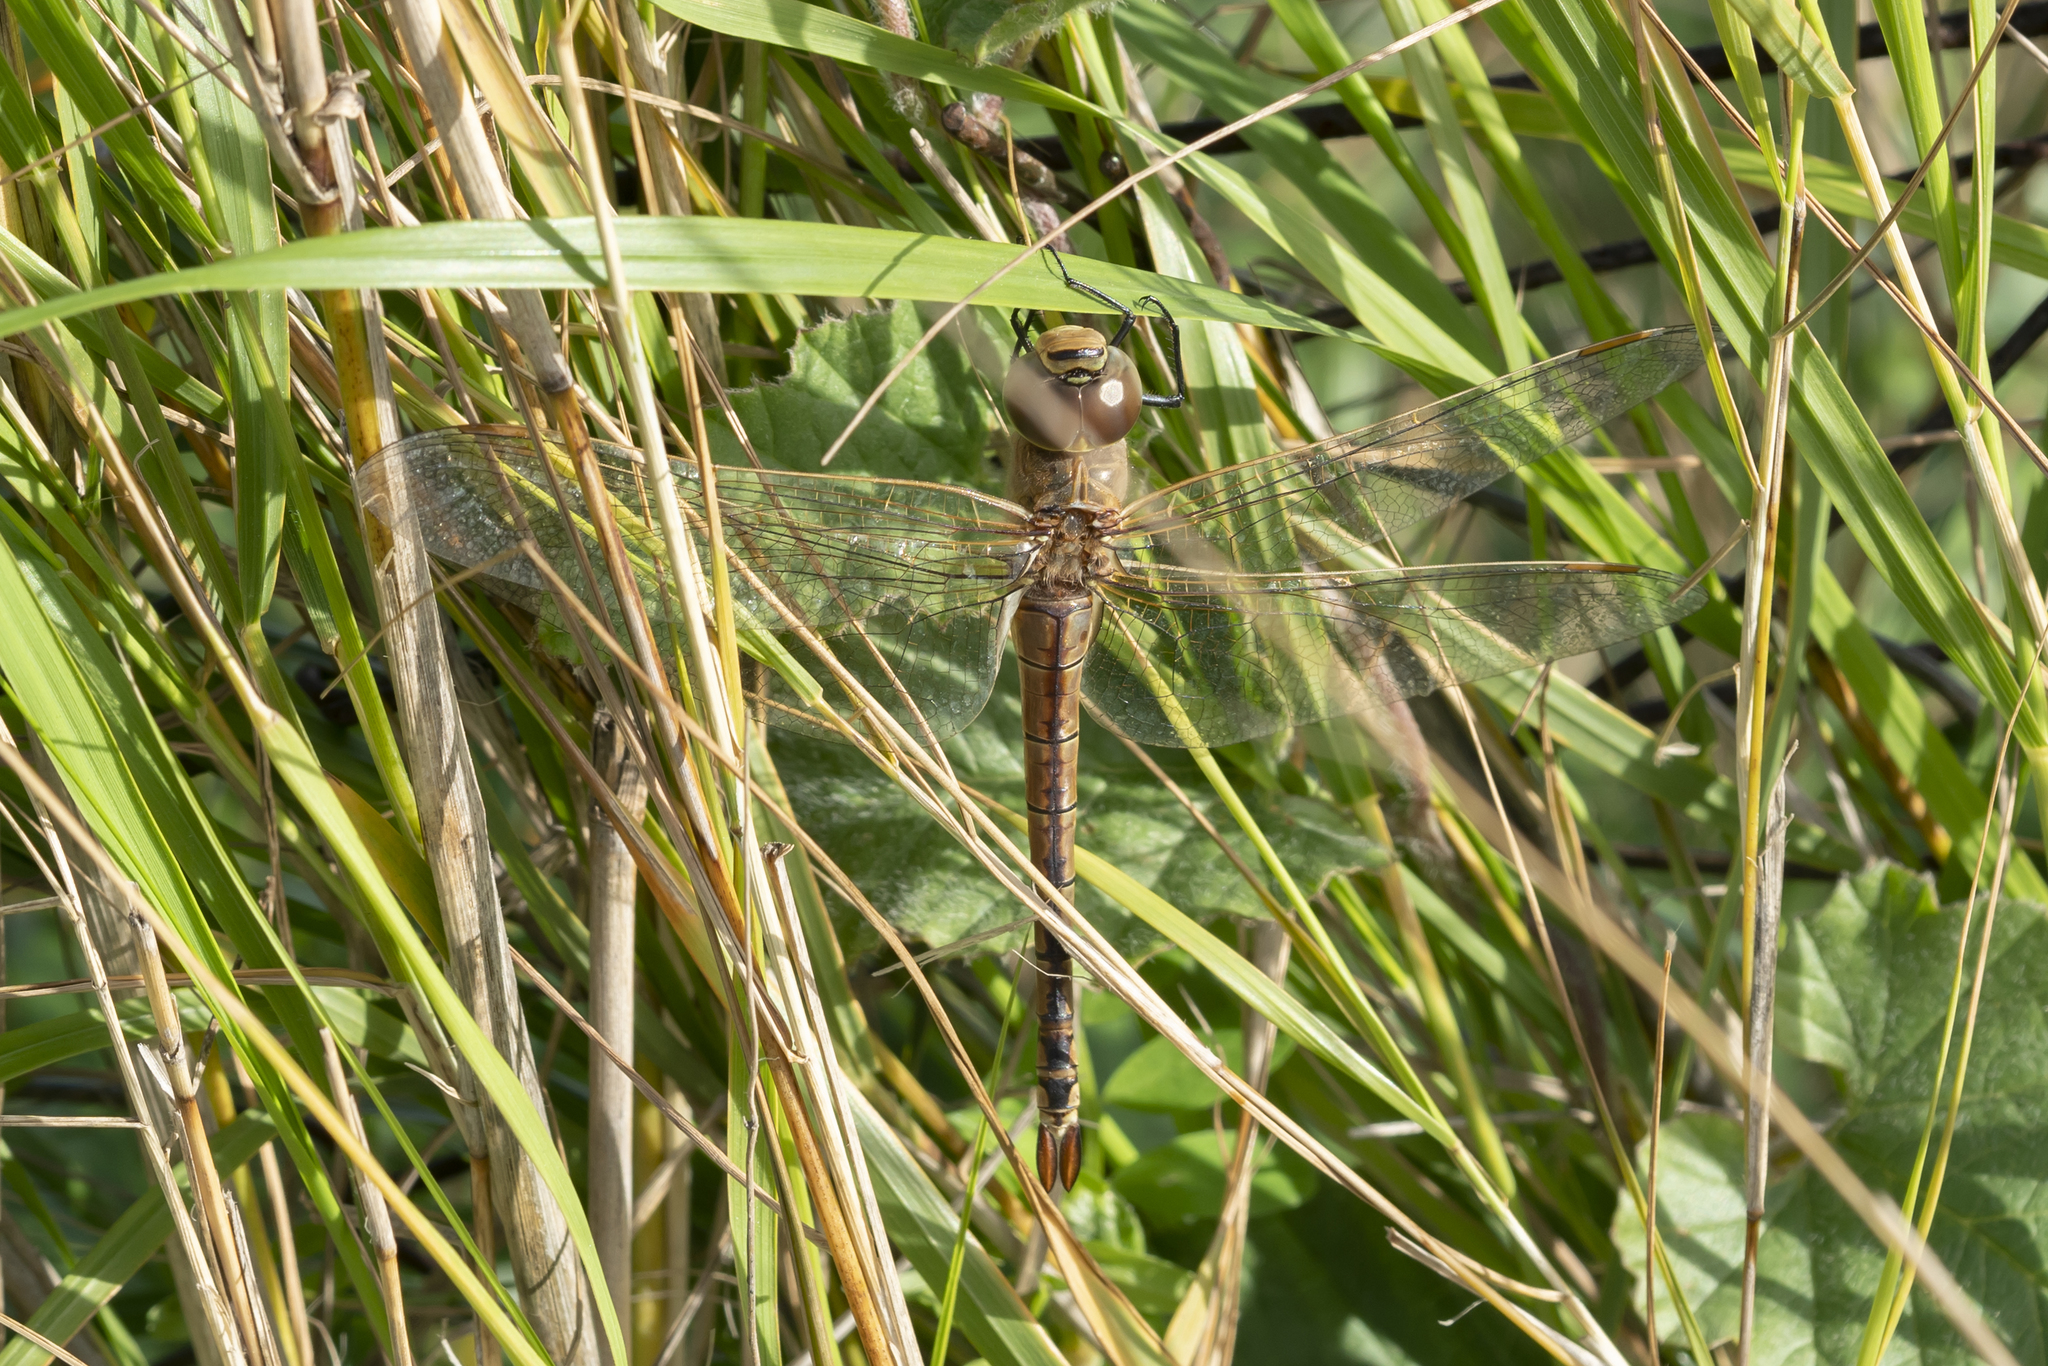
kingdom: Animalia
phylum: Arthropoda
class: Insecta
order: Odonata
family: Aeshnidae
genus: Anax
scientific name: Anax ephippiger
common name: Vagrant emperor
